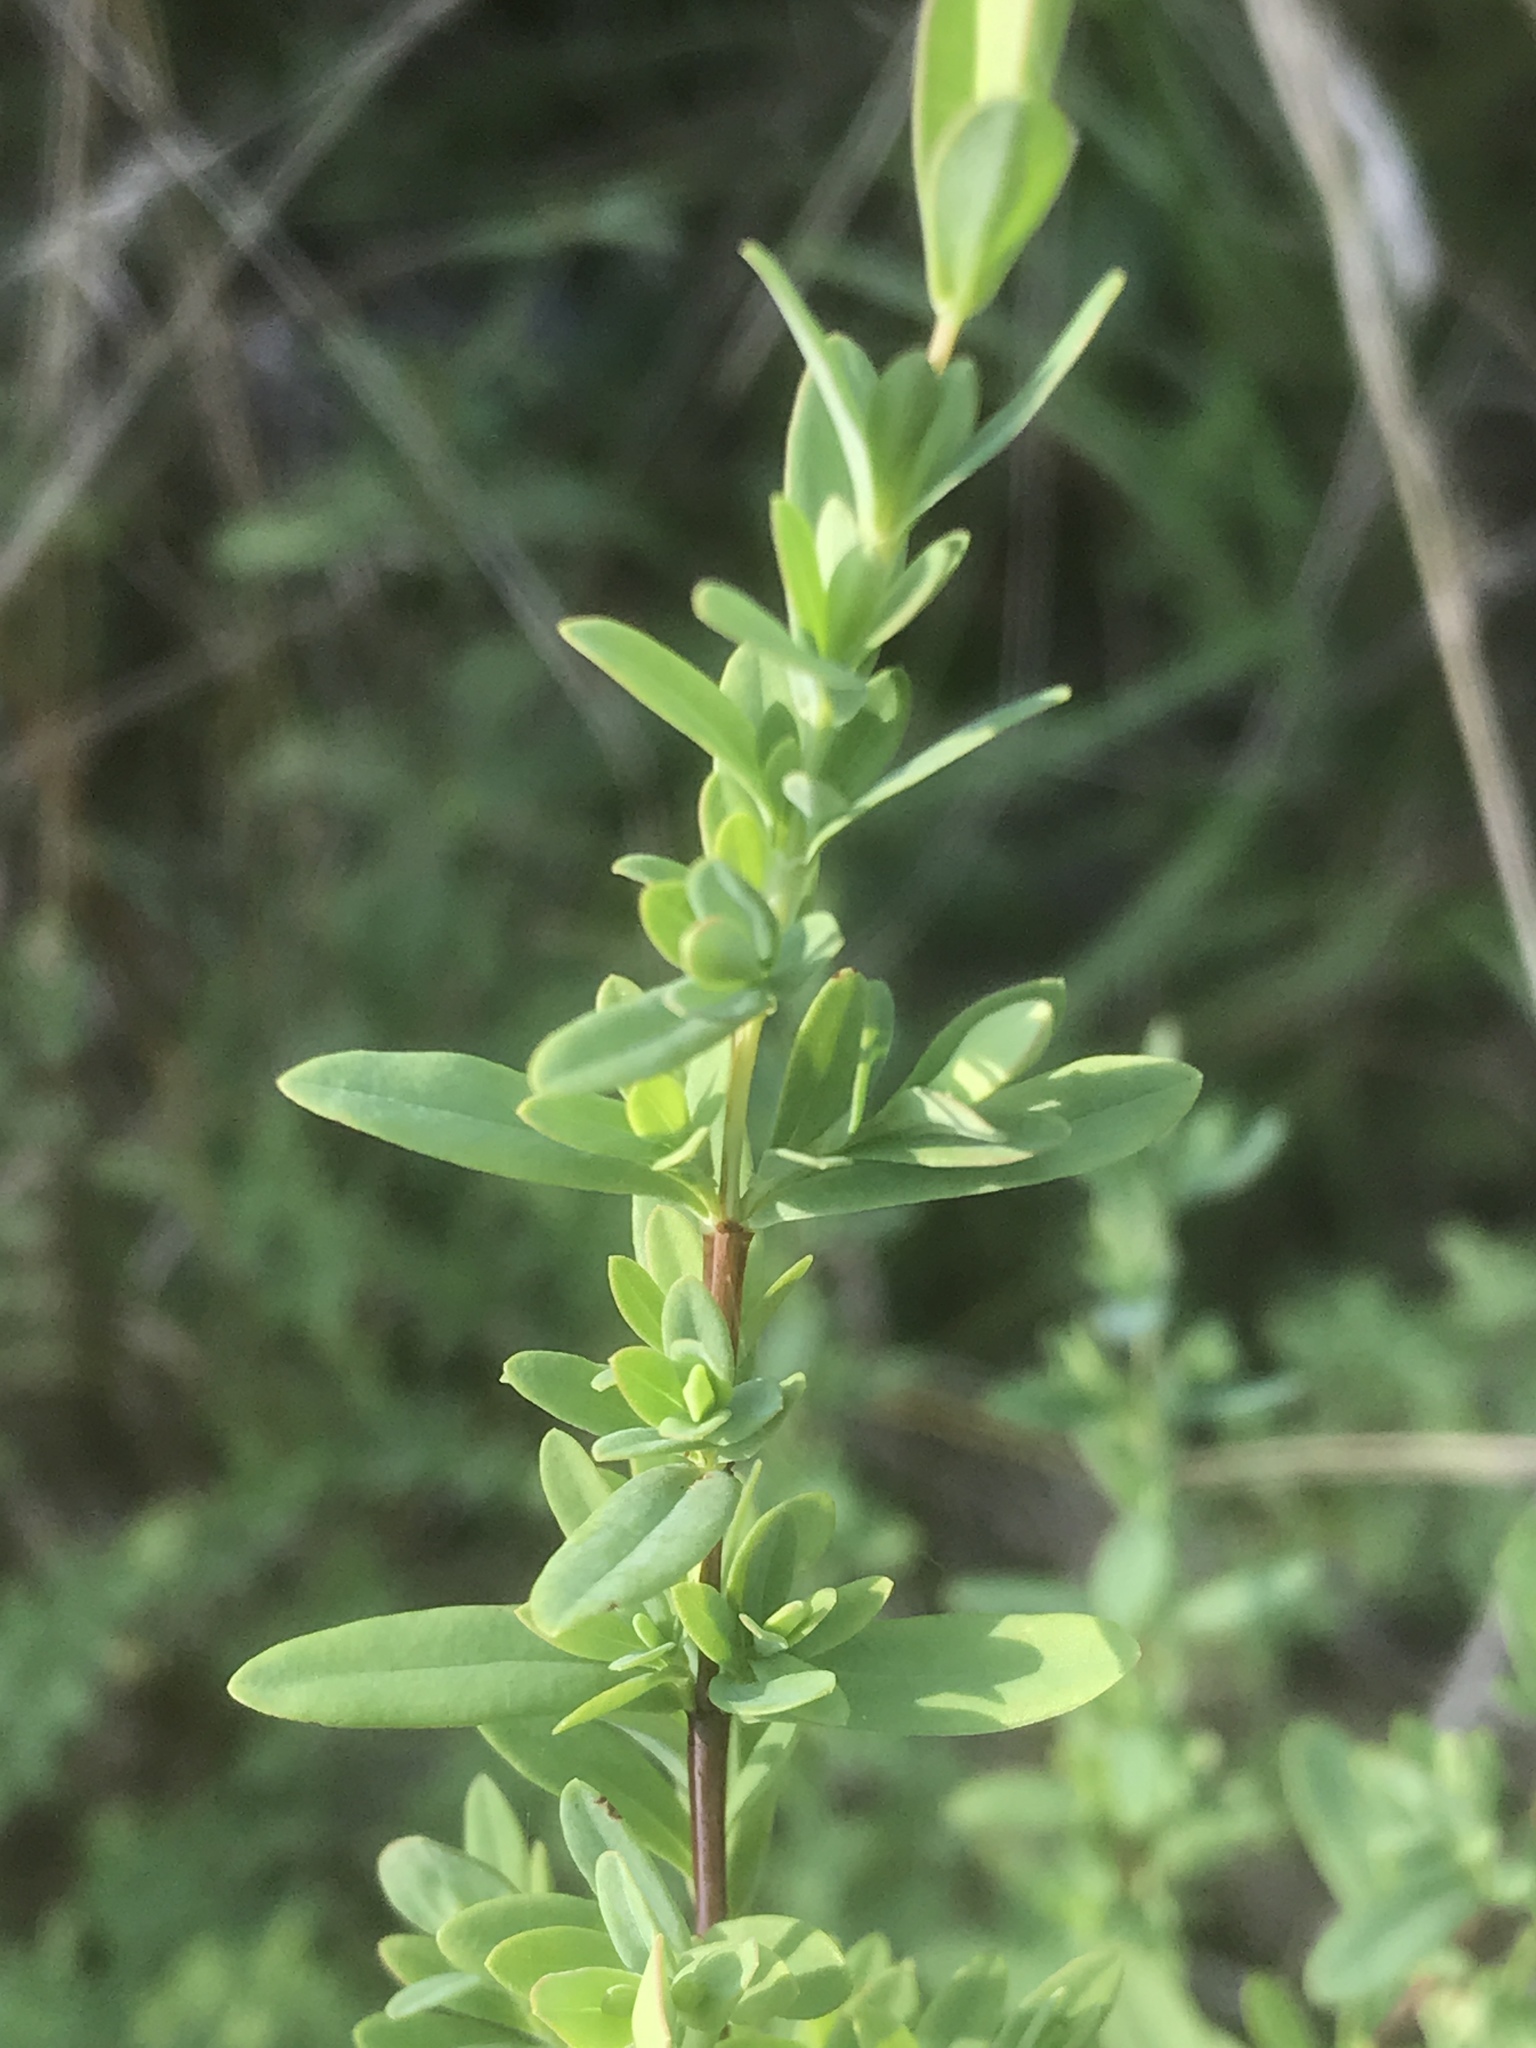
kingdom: Plantae
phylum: Tracheophyta
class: Magnoliopsida
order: Malpighiales
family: Hypericaceae
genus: Hypericum
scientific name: Hypericum hypericoides
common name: St. andrew's cross
